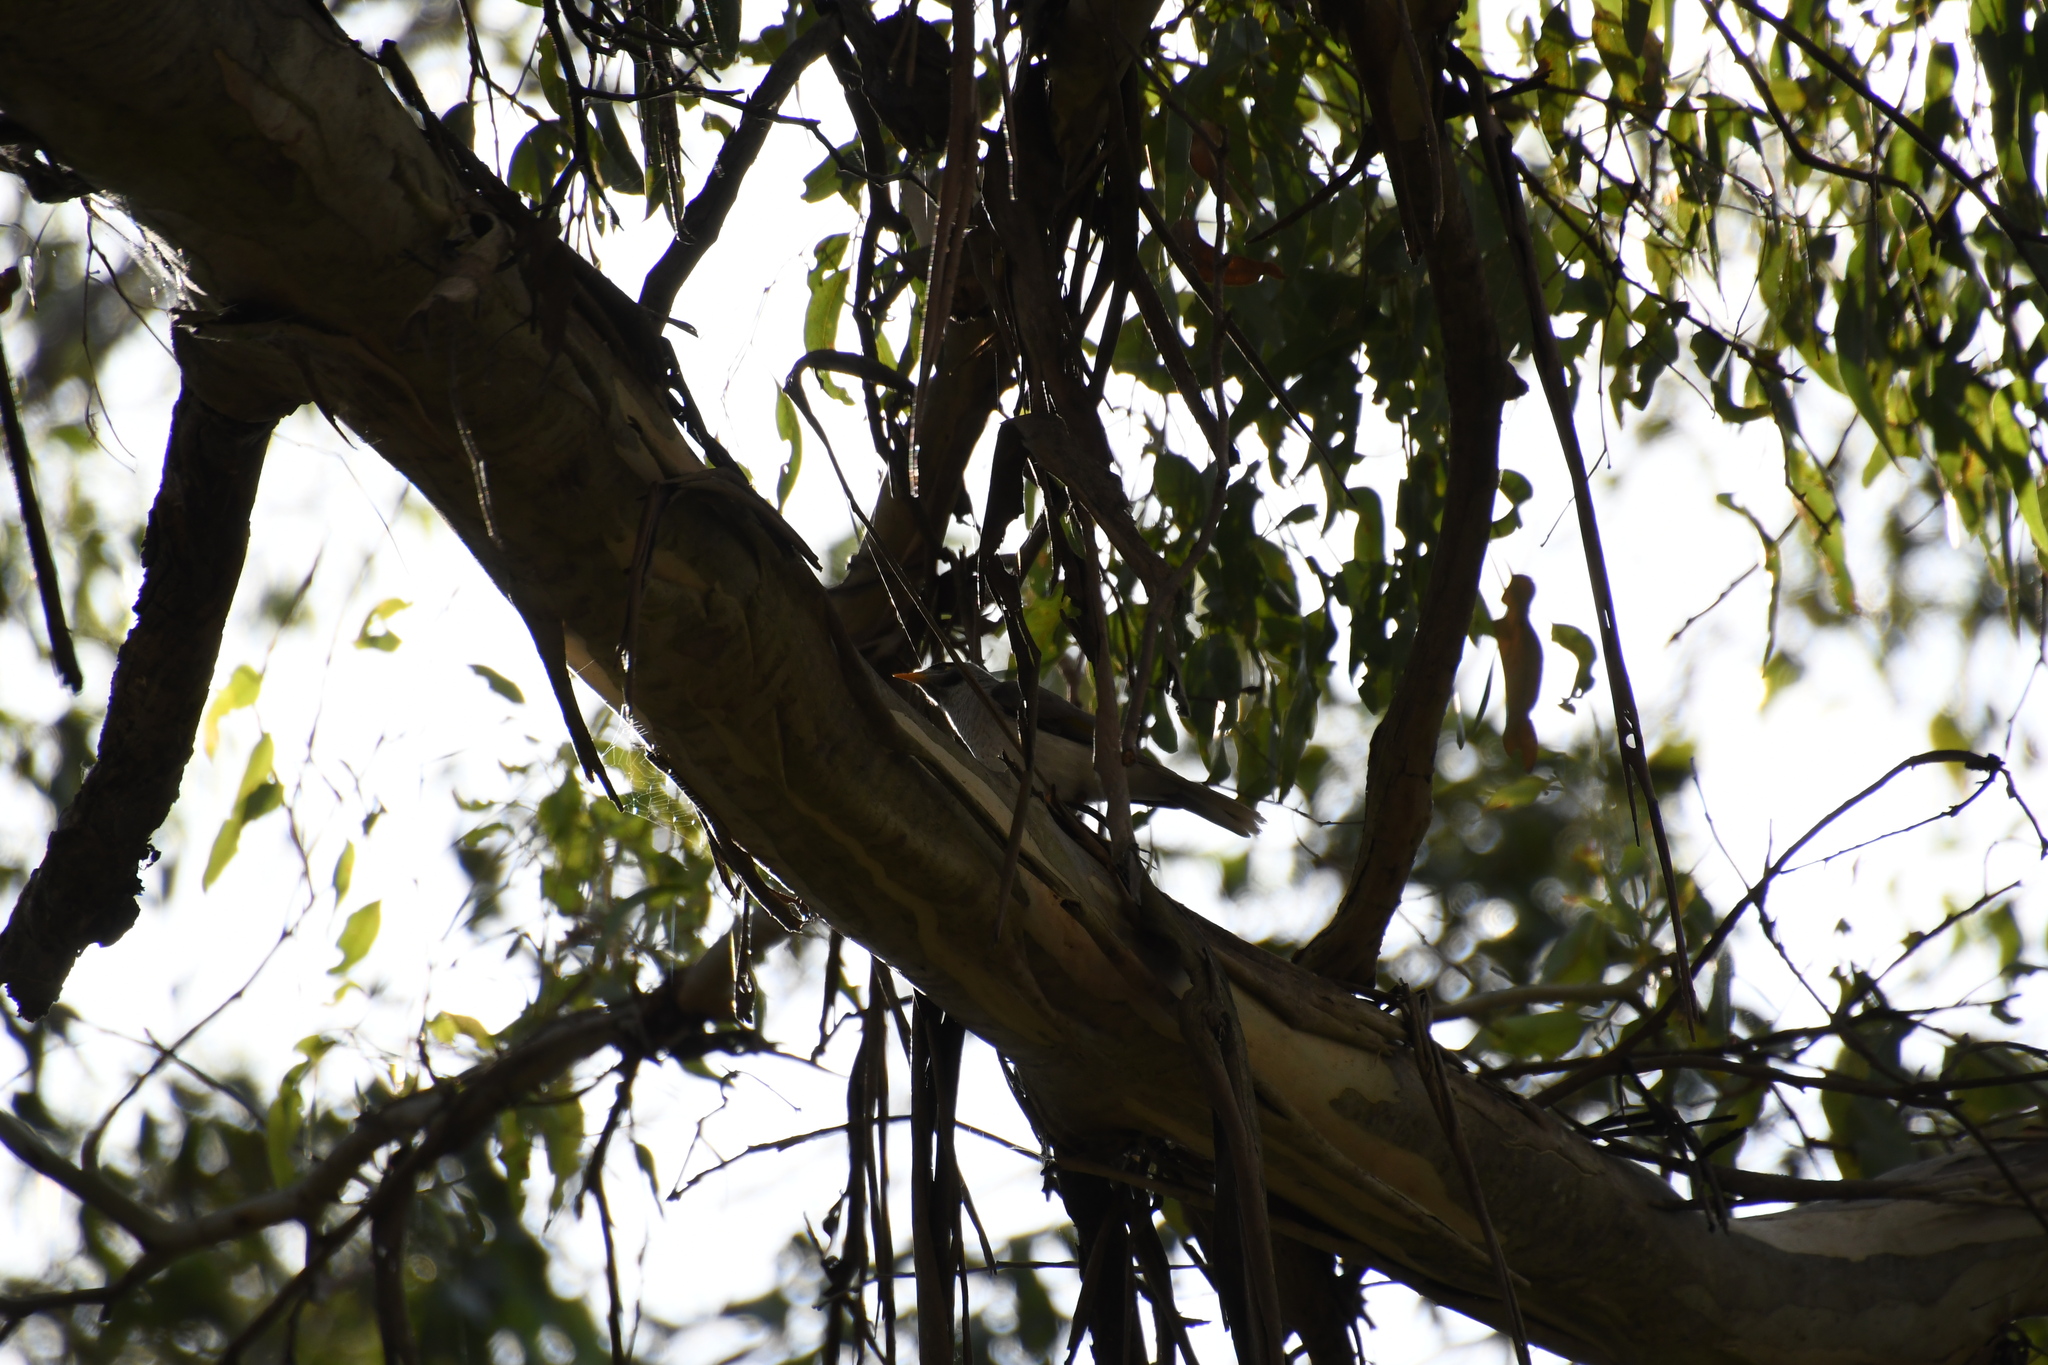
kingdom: Animalia
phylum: Chordata
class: Aves
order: Passeriformes
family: Meliphagidae
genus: Manorina
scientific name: Manorina melanocephala
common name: Noisy miner
